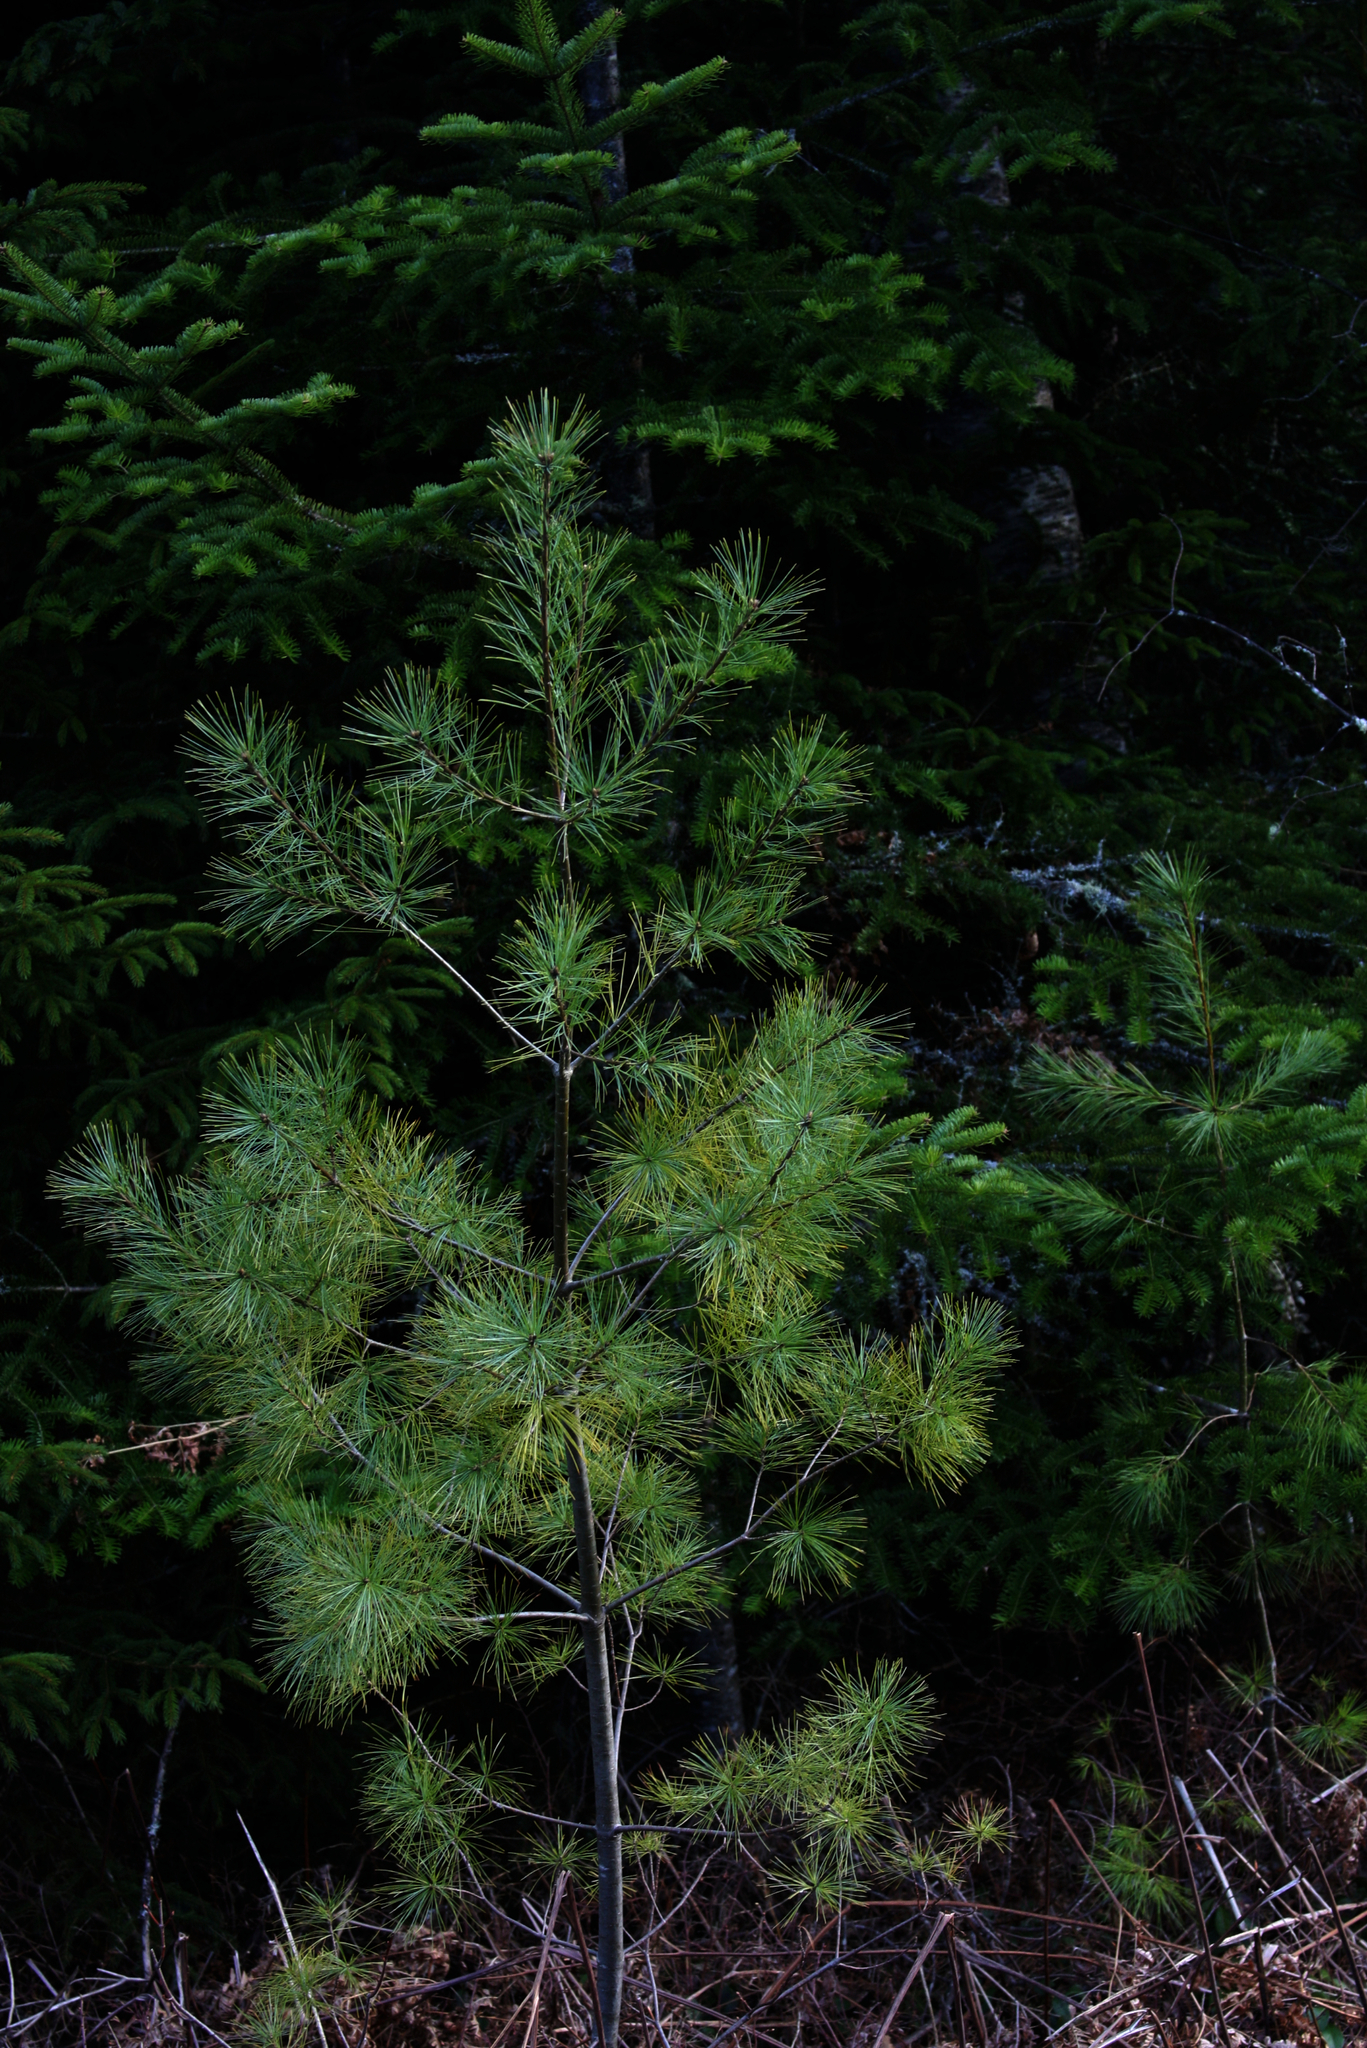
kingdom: Plantae
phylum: Tracheophyta
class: Pinopsida
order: Pinales
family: Pinaceae
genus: Pinus
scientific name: Pinus strobus
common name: Weymouth pine
